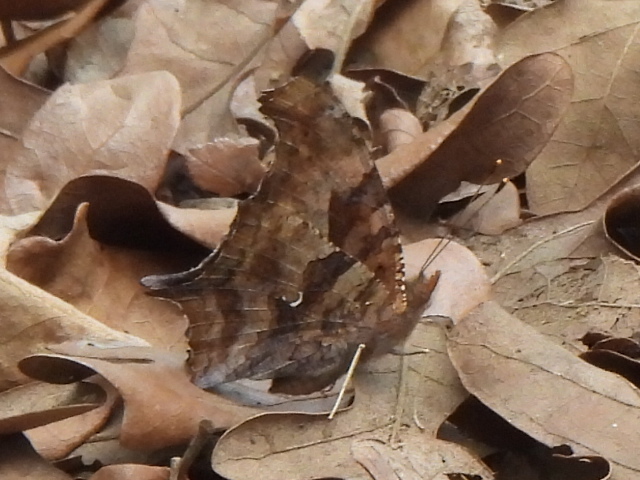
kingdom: Animalia
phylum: Arthropoda
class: Insecta
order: Lepidoptera
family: Nymphalidae
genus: Polygonia
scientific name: Polygonia interrogationis
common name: Question mark
